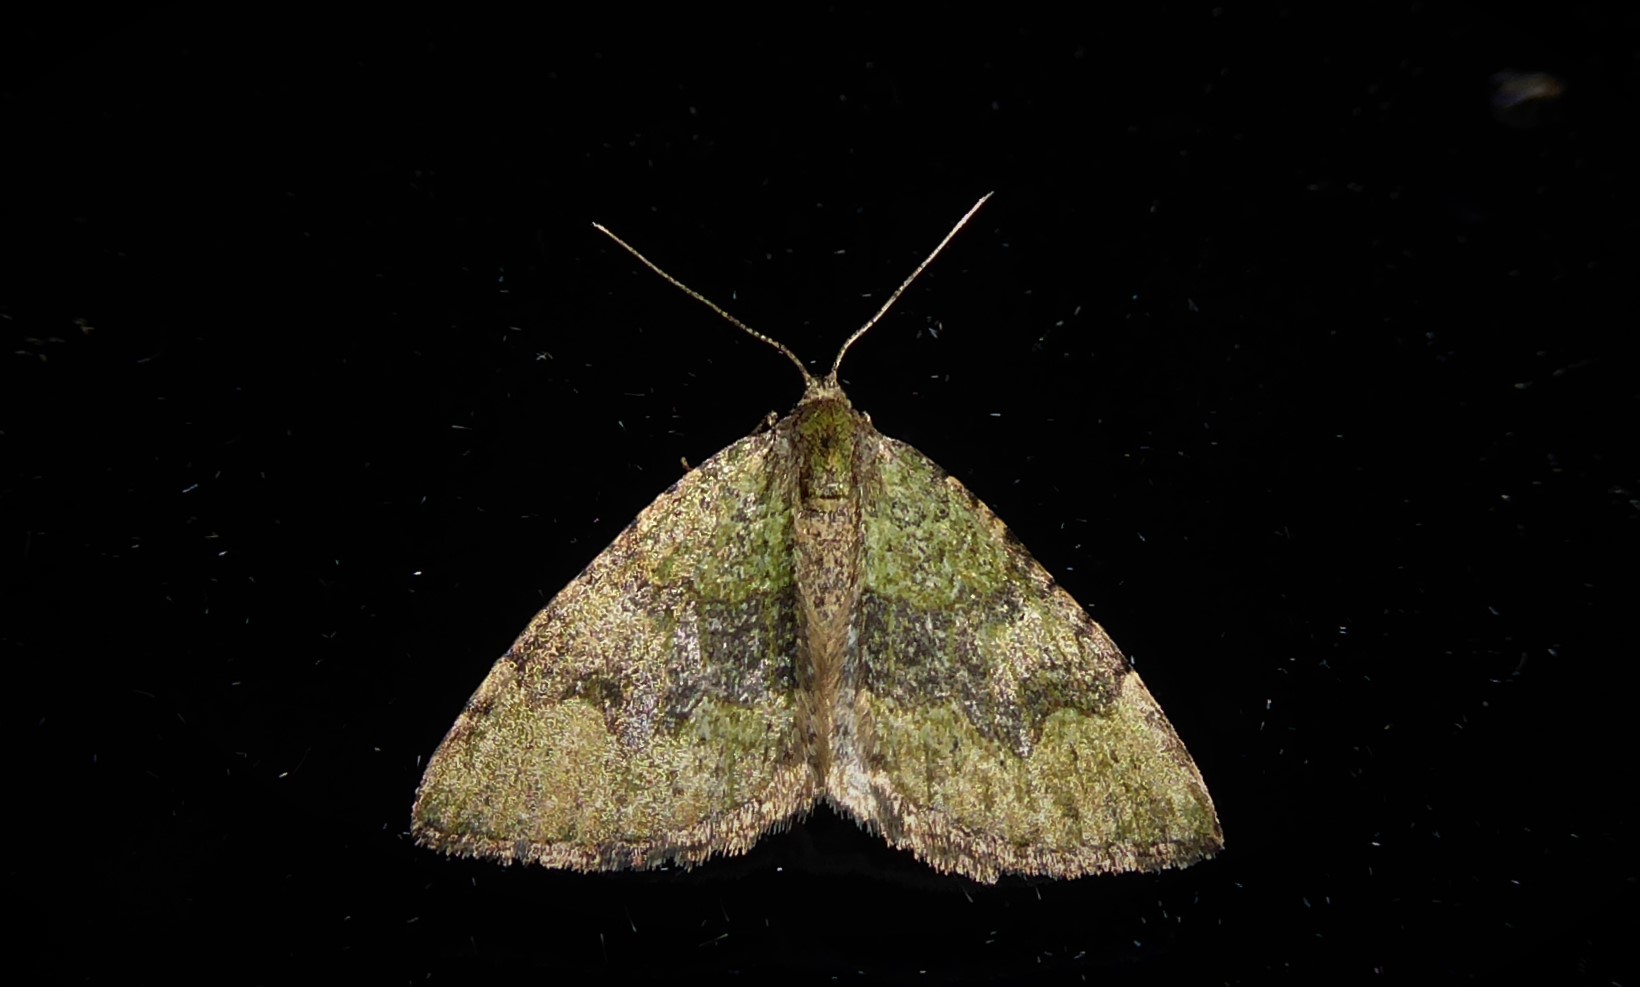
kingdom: Animalia
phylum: Arthropoda
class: Insecta
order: Lepidoptera
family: Geometridae
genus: Epyaxa
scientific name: Epyaxa rosearia
